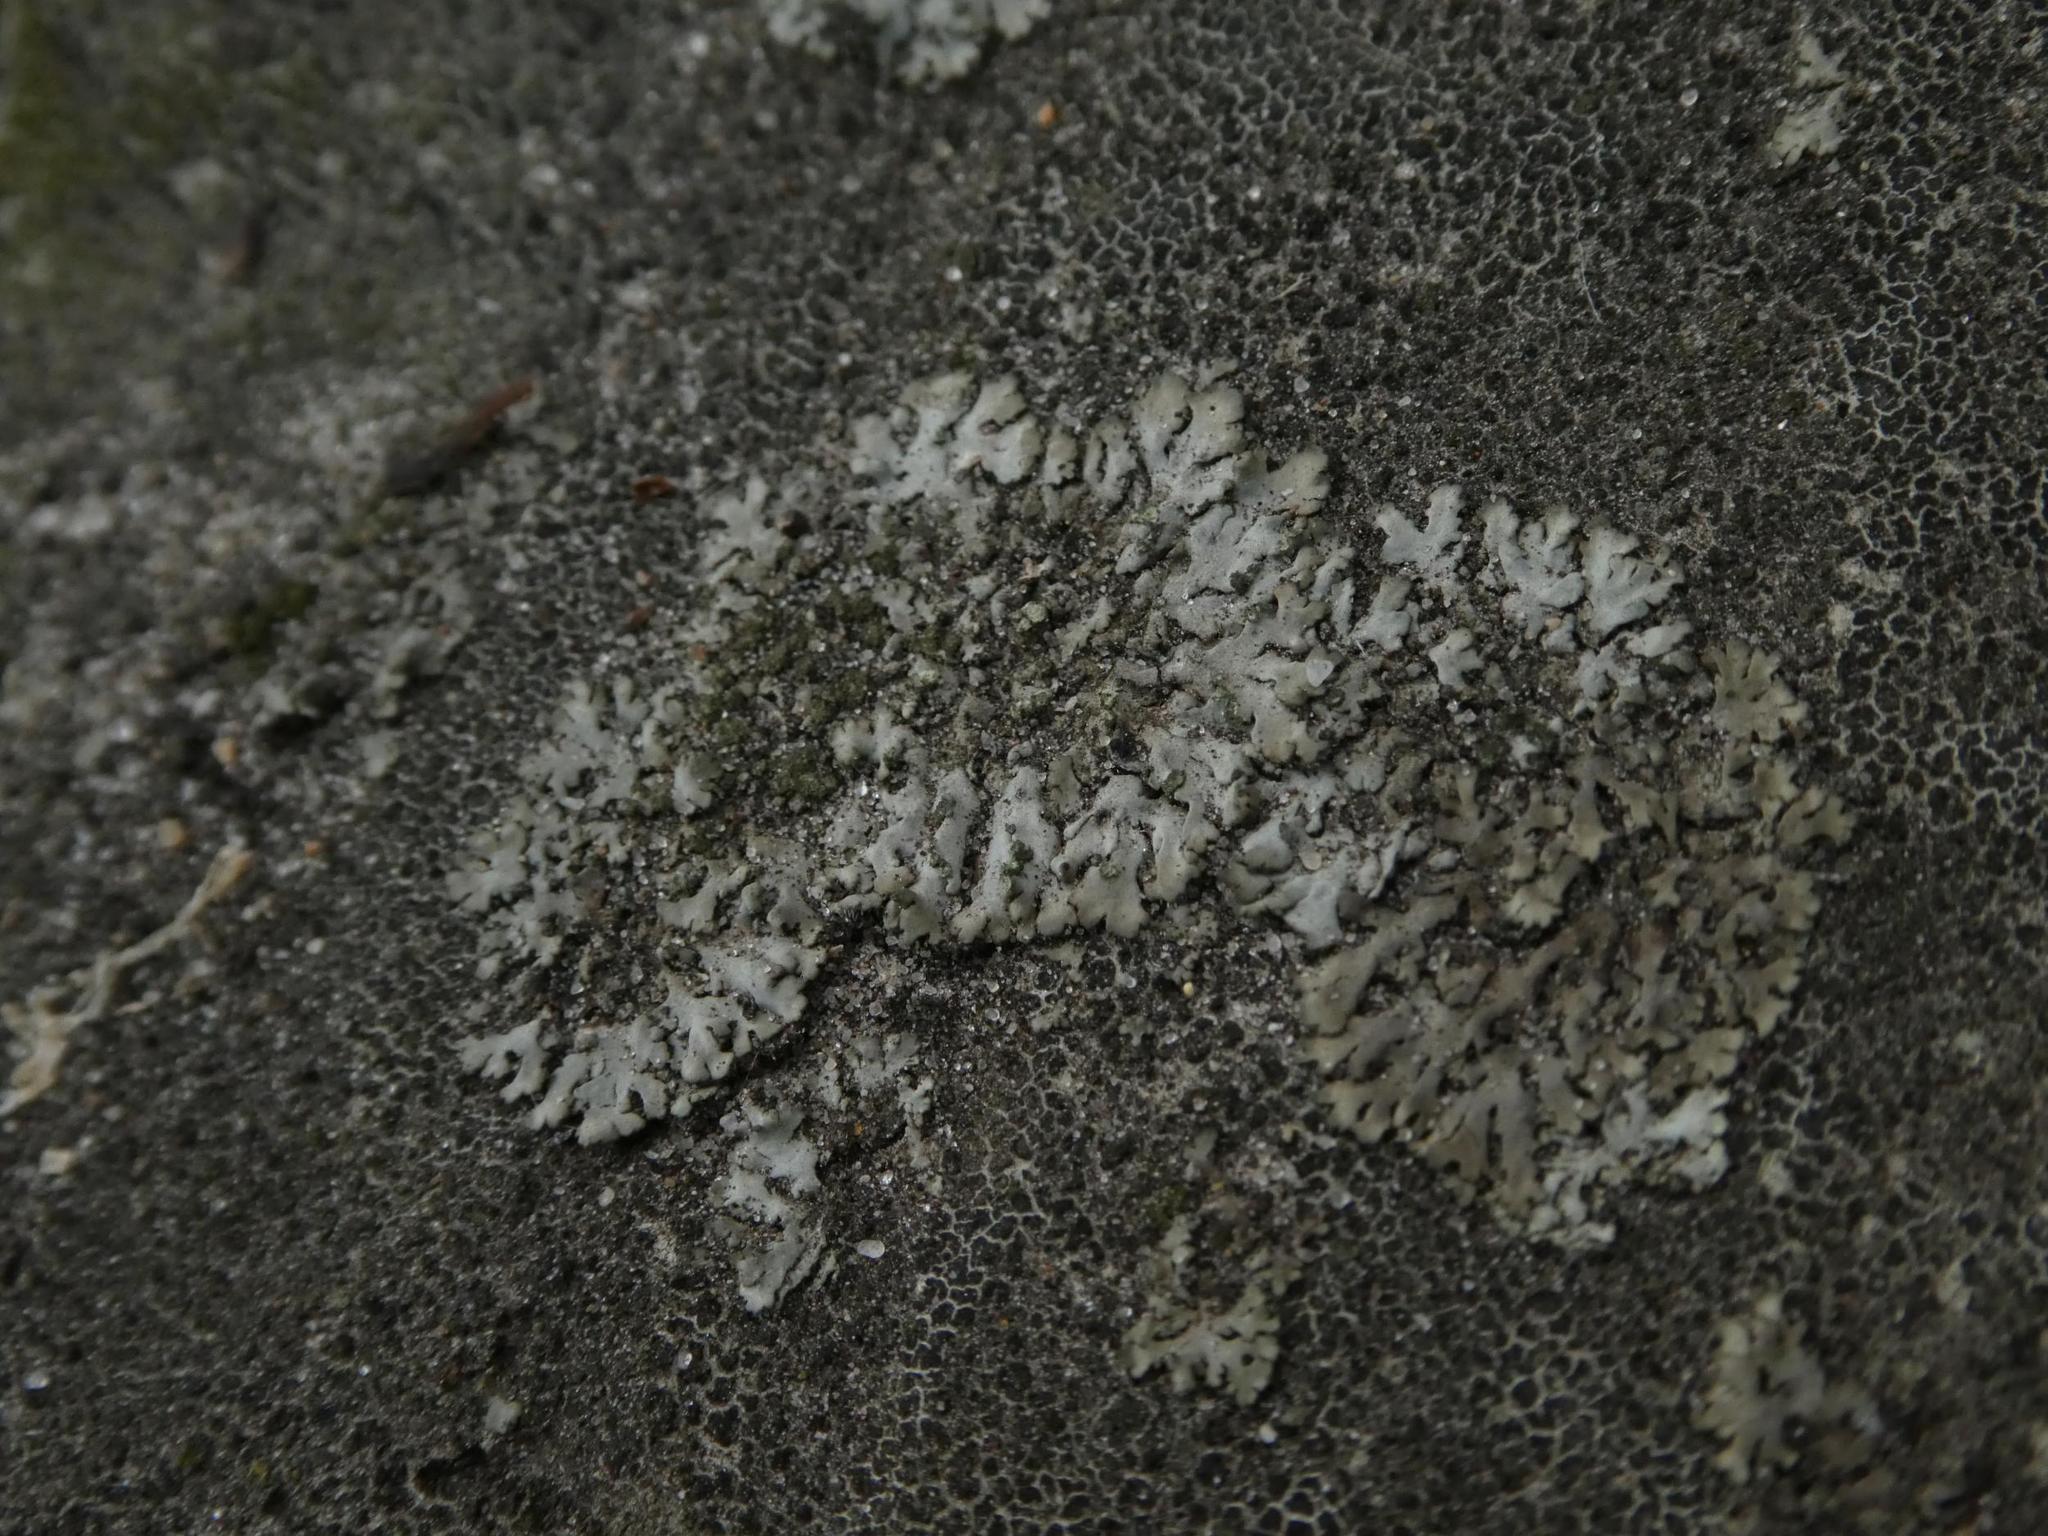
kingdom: Fungi
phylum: Ascomycota
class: Lecanoromycetes
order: Caliciales
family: Physciaceae
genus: Phaeophyscia
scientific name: Phaeophyscia orbicularis
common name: Mealy shadow lichen
